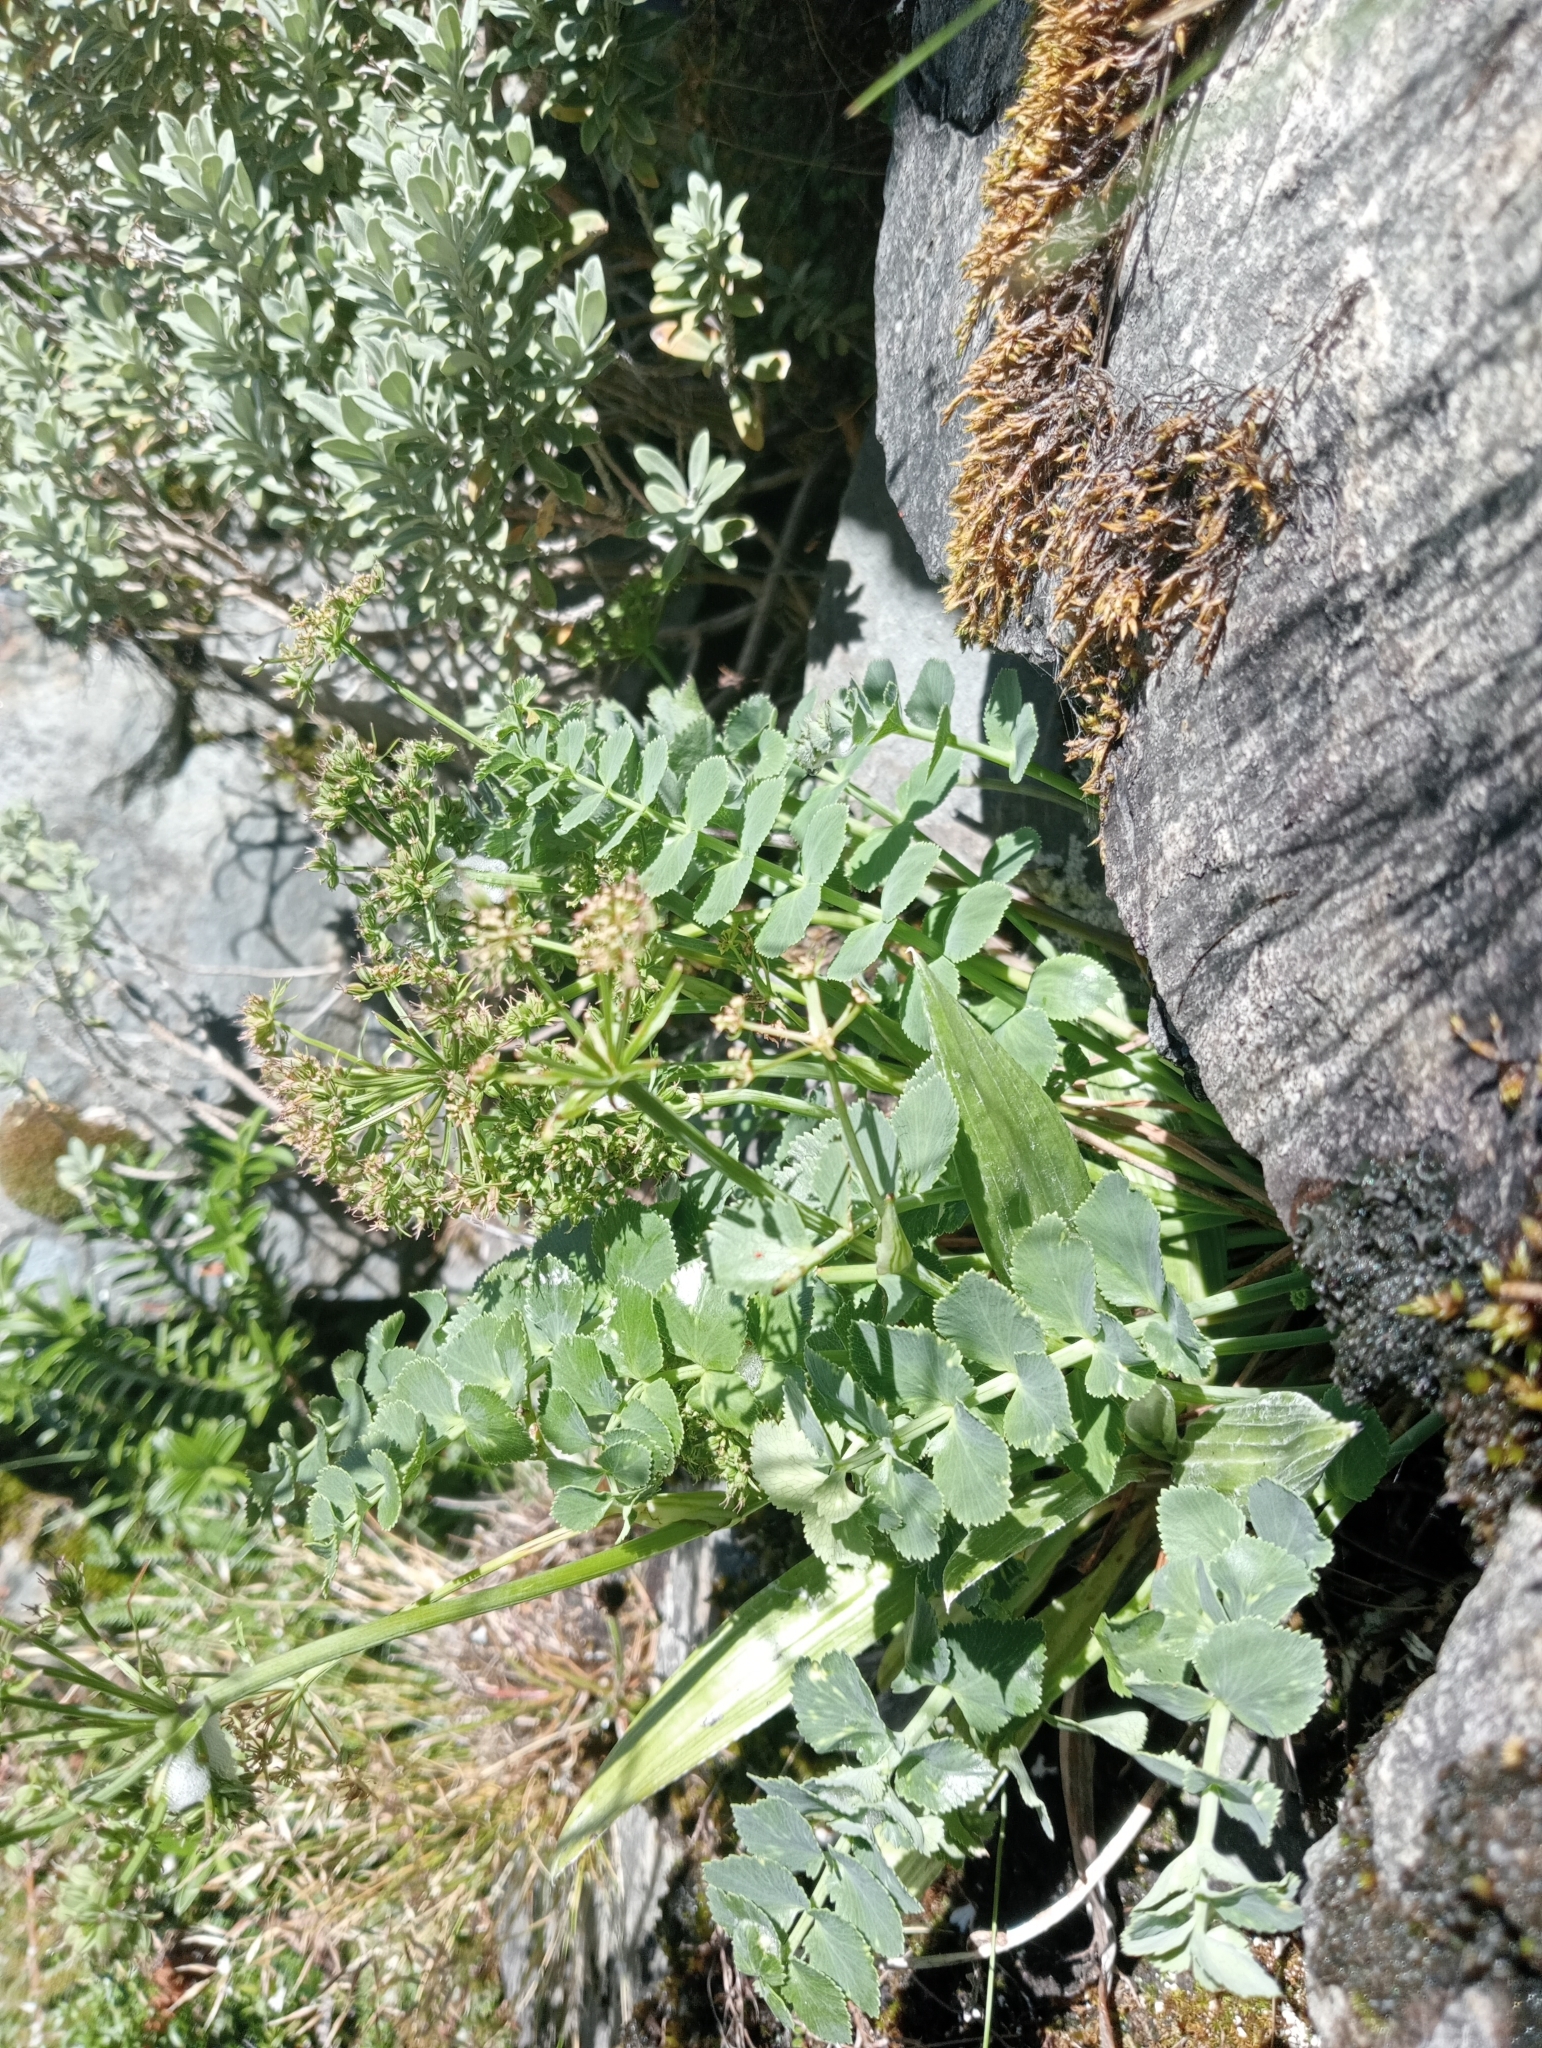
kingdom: Plantae
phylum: Tracheophyta
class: Magnoliopsida
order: Apiales
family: Apiaceae
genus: Gingidia
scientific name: Gingidia montana
